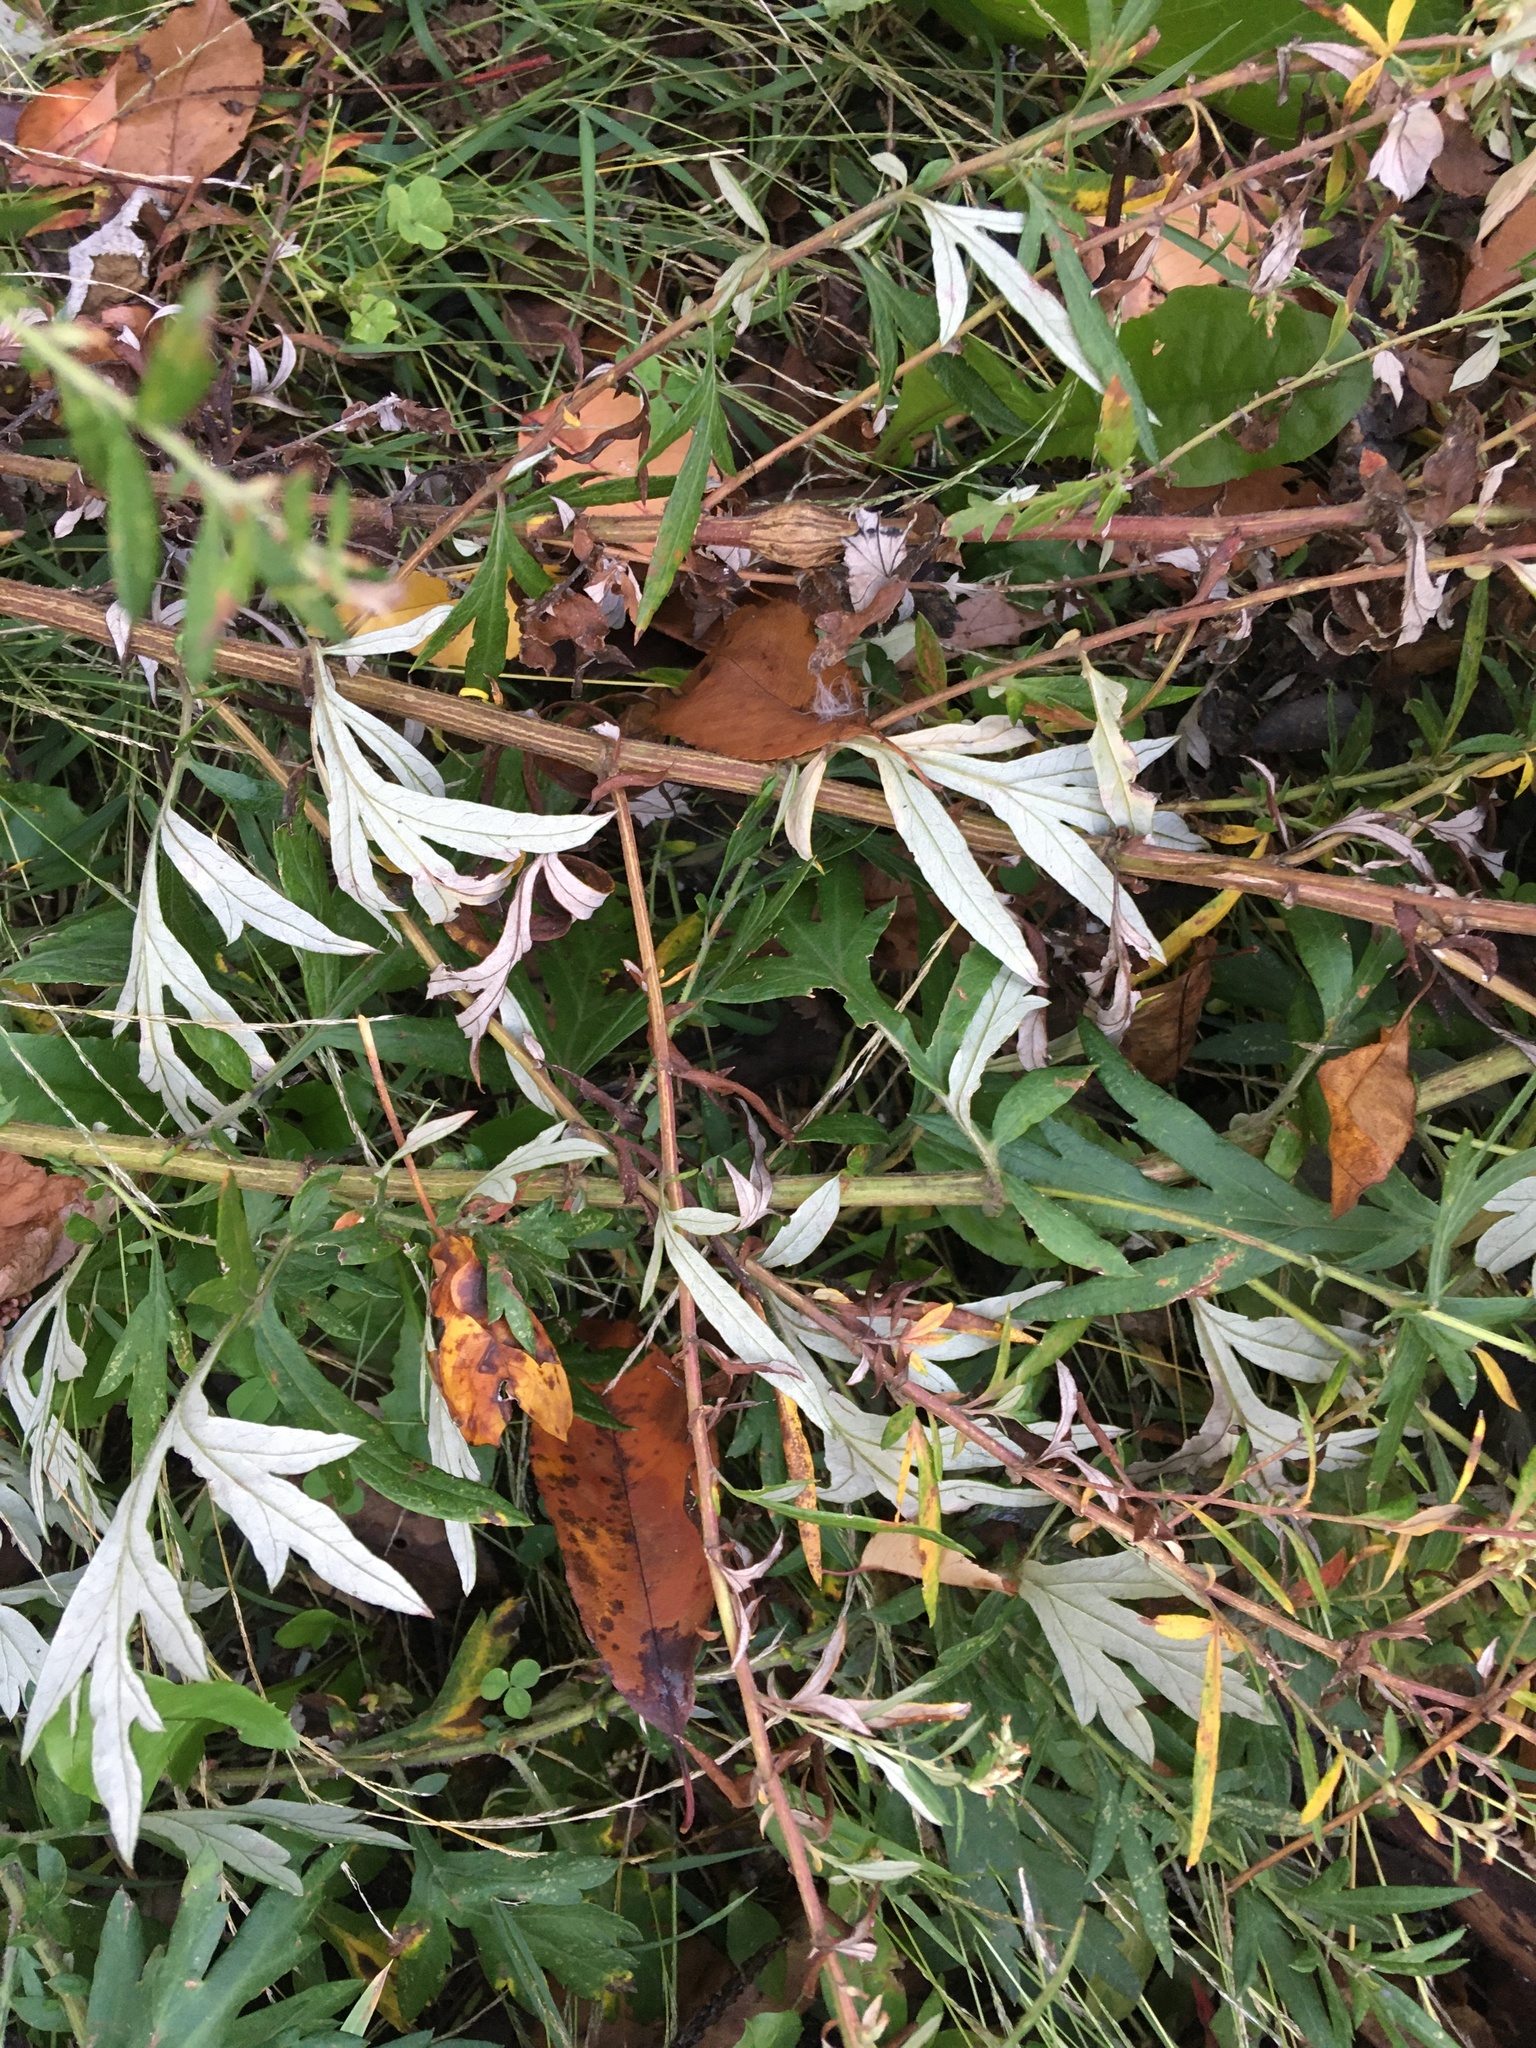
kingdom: Plantae
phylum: Tracheophyta
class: Magnoliopsida
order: Asterales
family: Asteraceae
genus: Artemisia
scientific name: Artemisia vulgaris
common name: Mugwort
